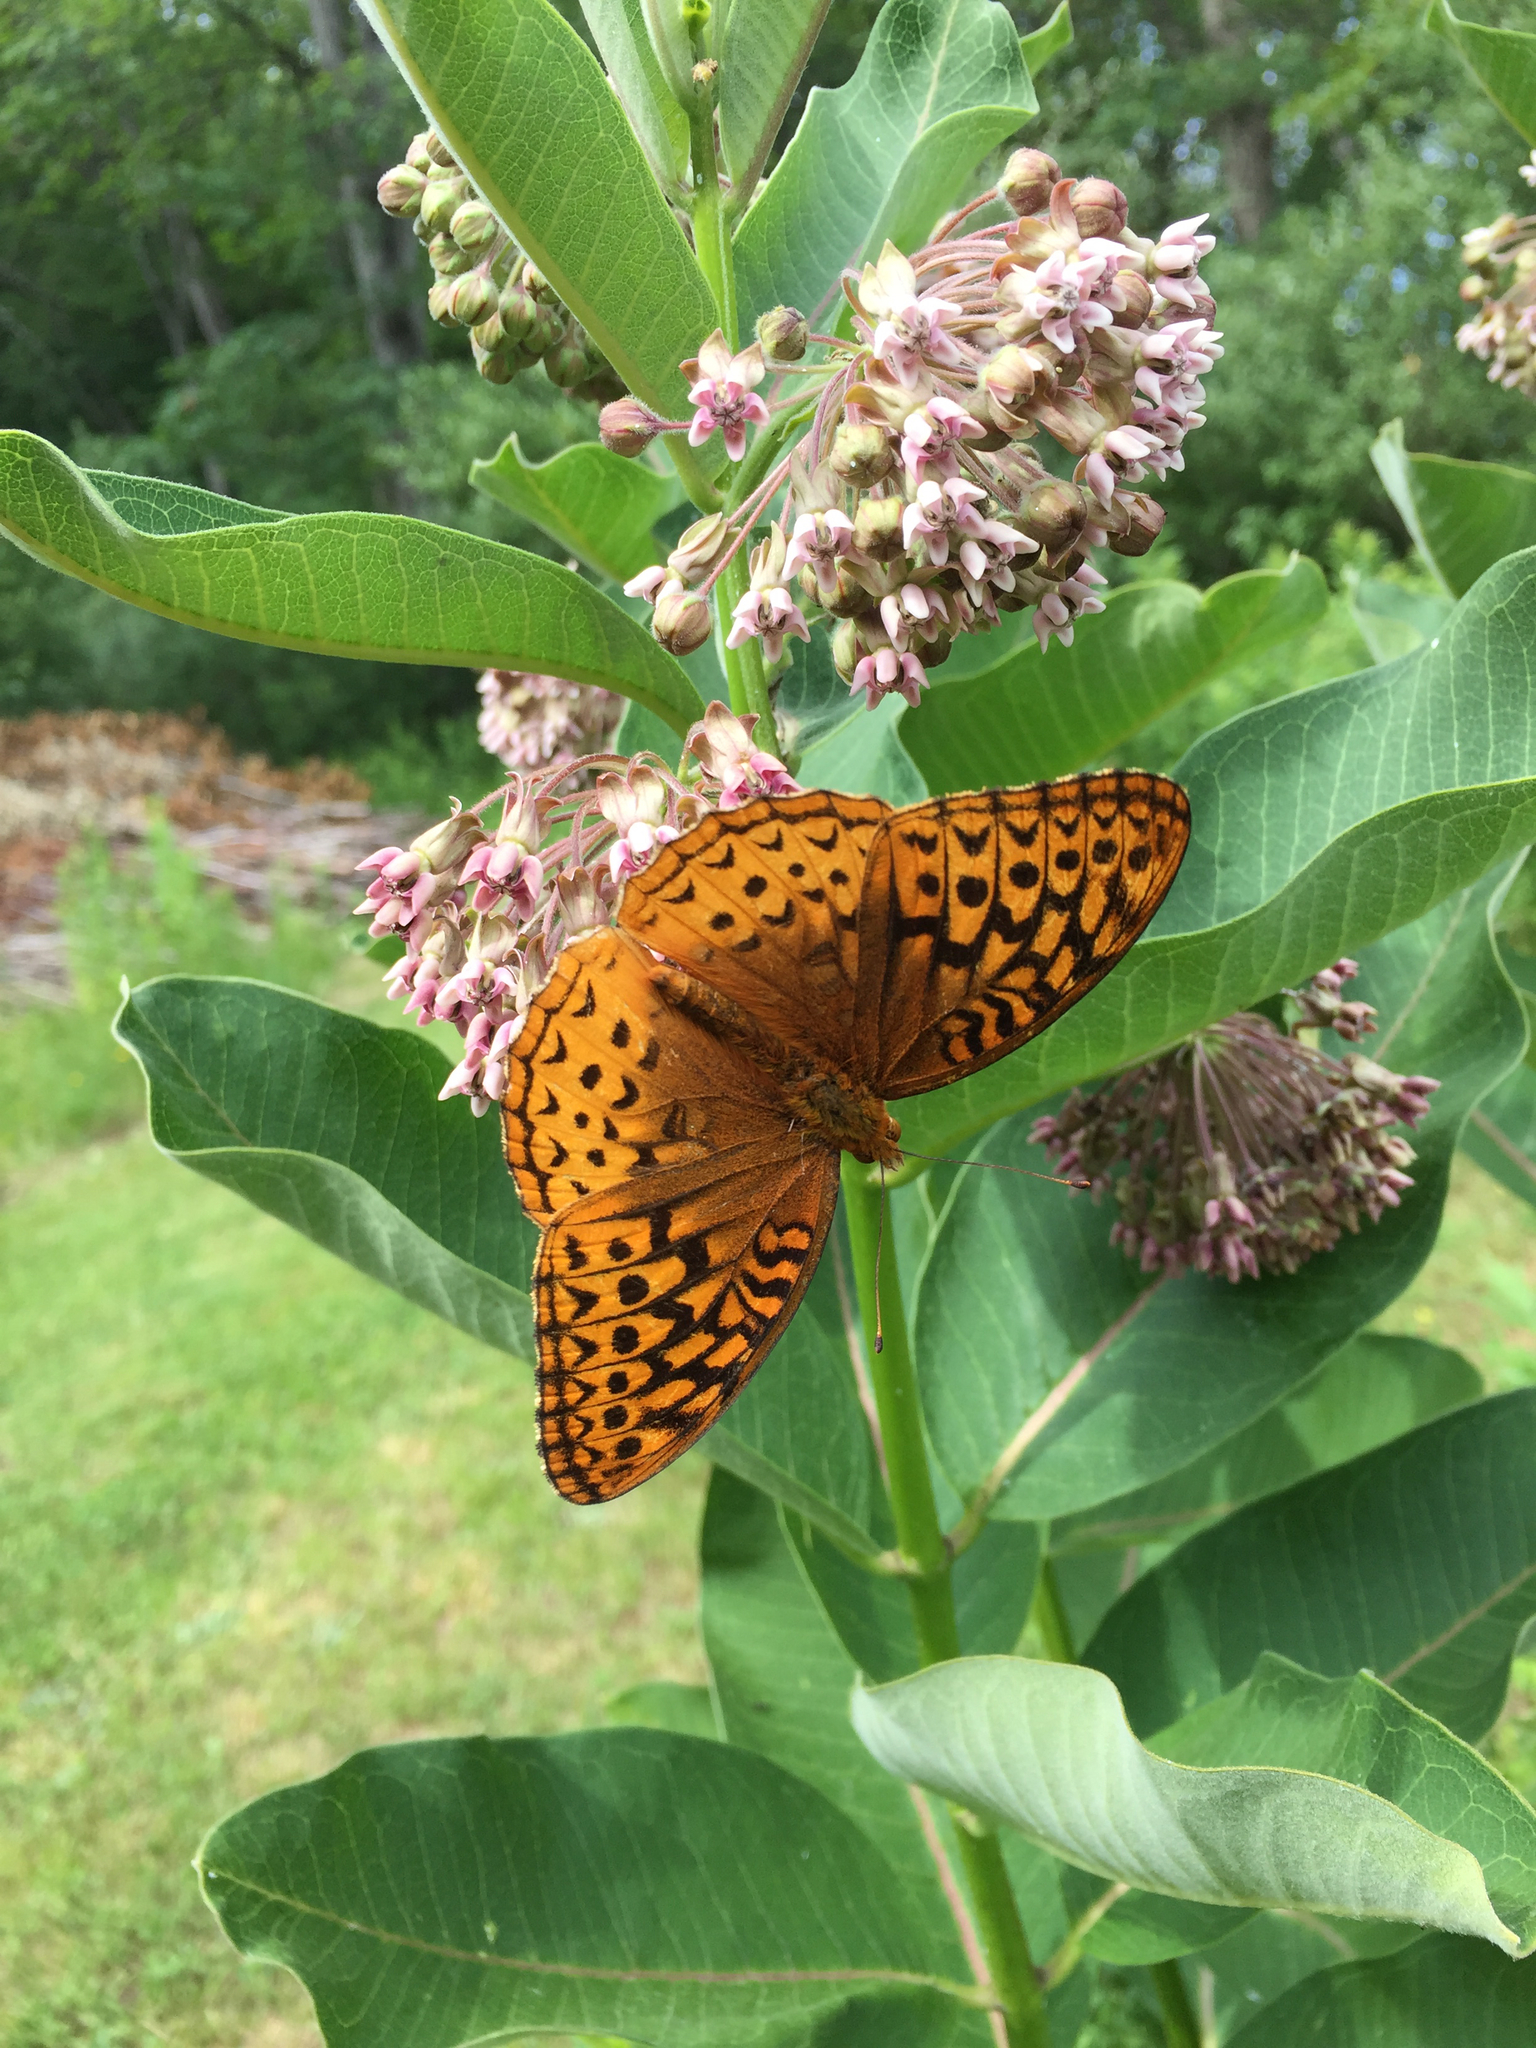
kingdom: Animalia
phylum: Arthropoda
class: Insecta
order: Lepidoptera
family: Nymphalidae
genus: Speyeria
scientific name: Speyeria cybele
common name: Great spangled fritillary
